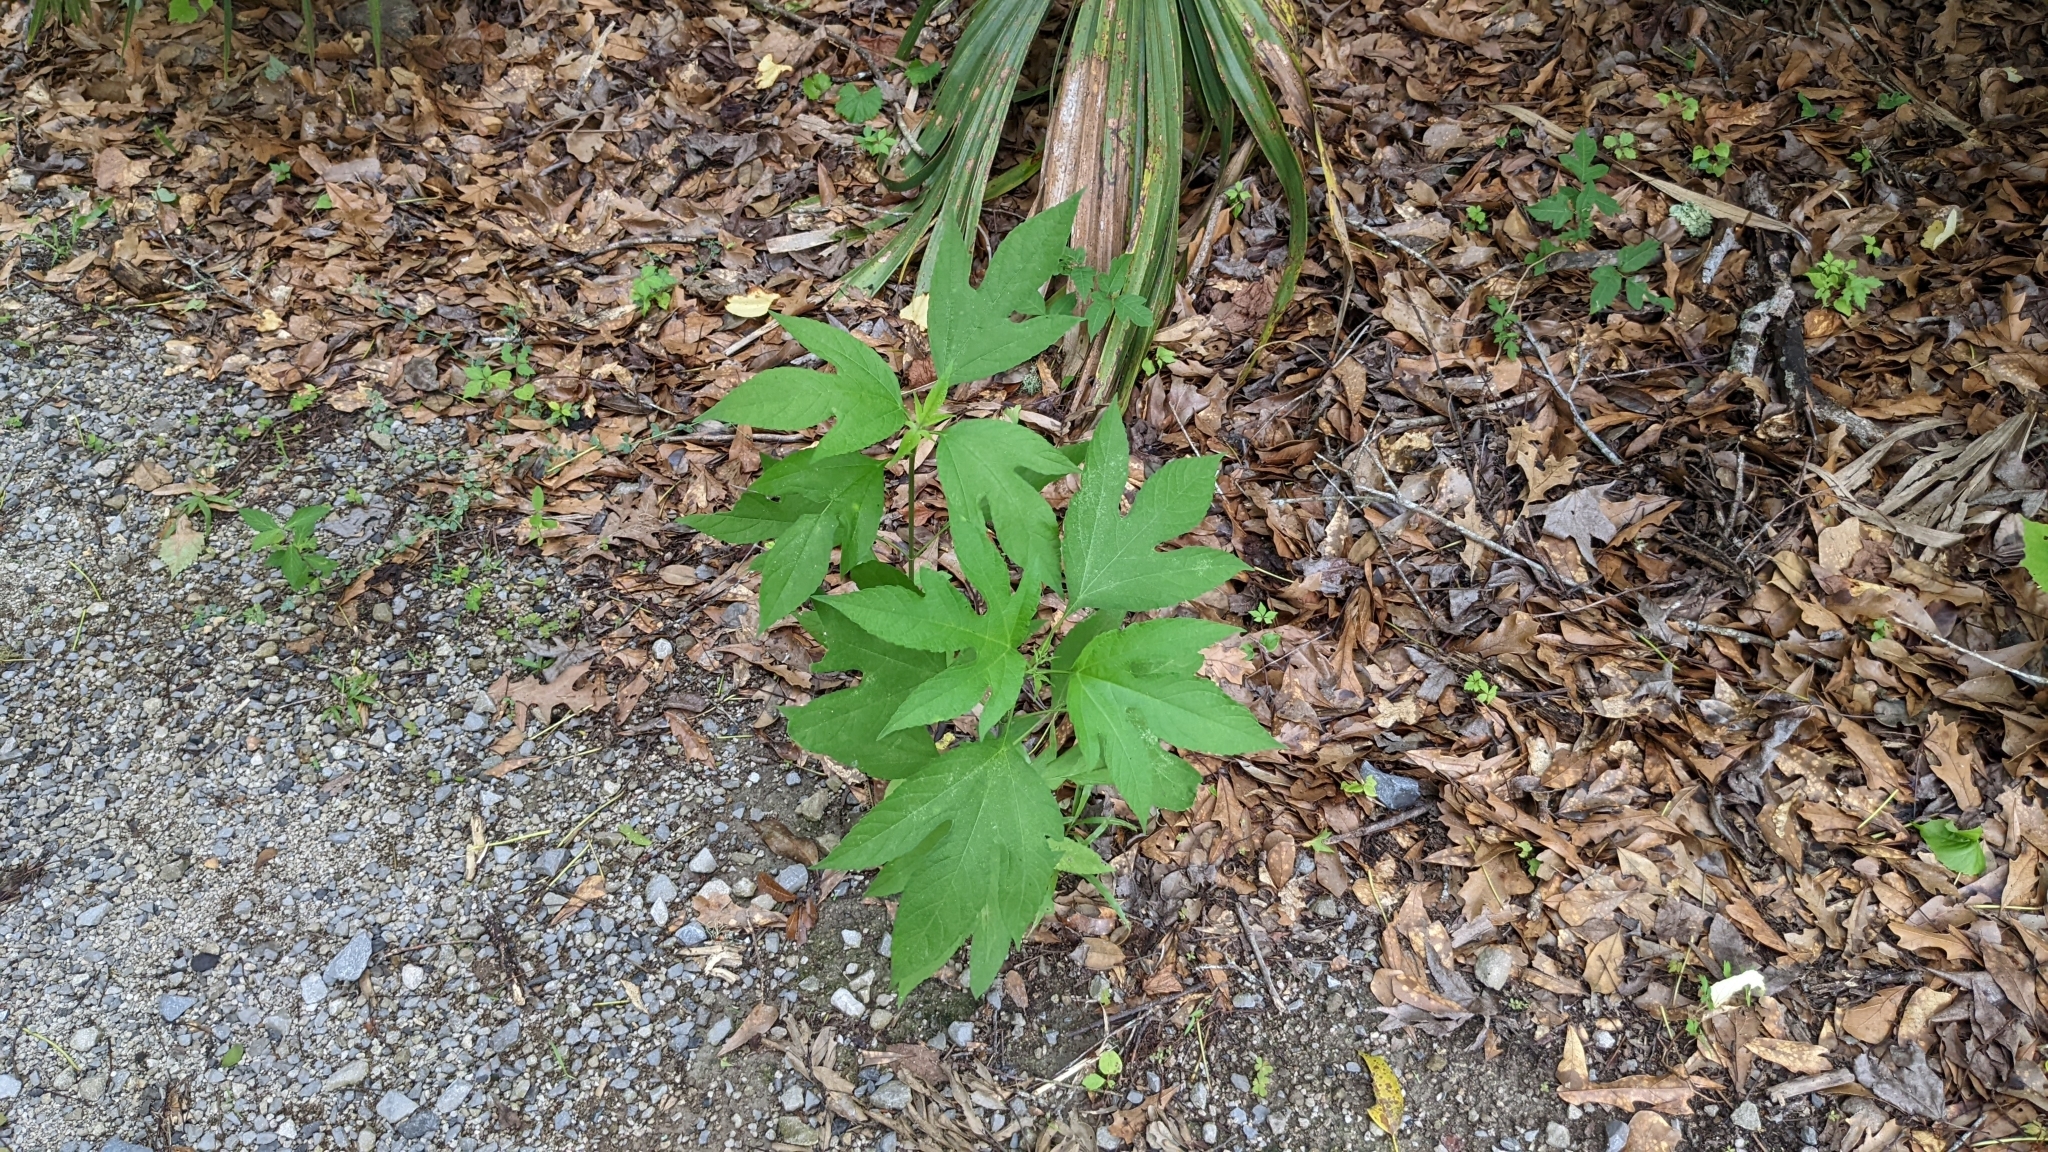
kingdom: Plantae
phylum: Tracheophyta
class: Magnoliopsida
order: Asterales
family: Asteraceae
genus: Ambrosia
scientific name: Ambrosia trifida
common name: Giant ragweed
